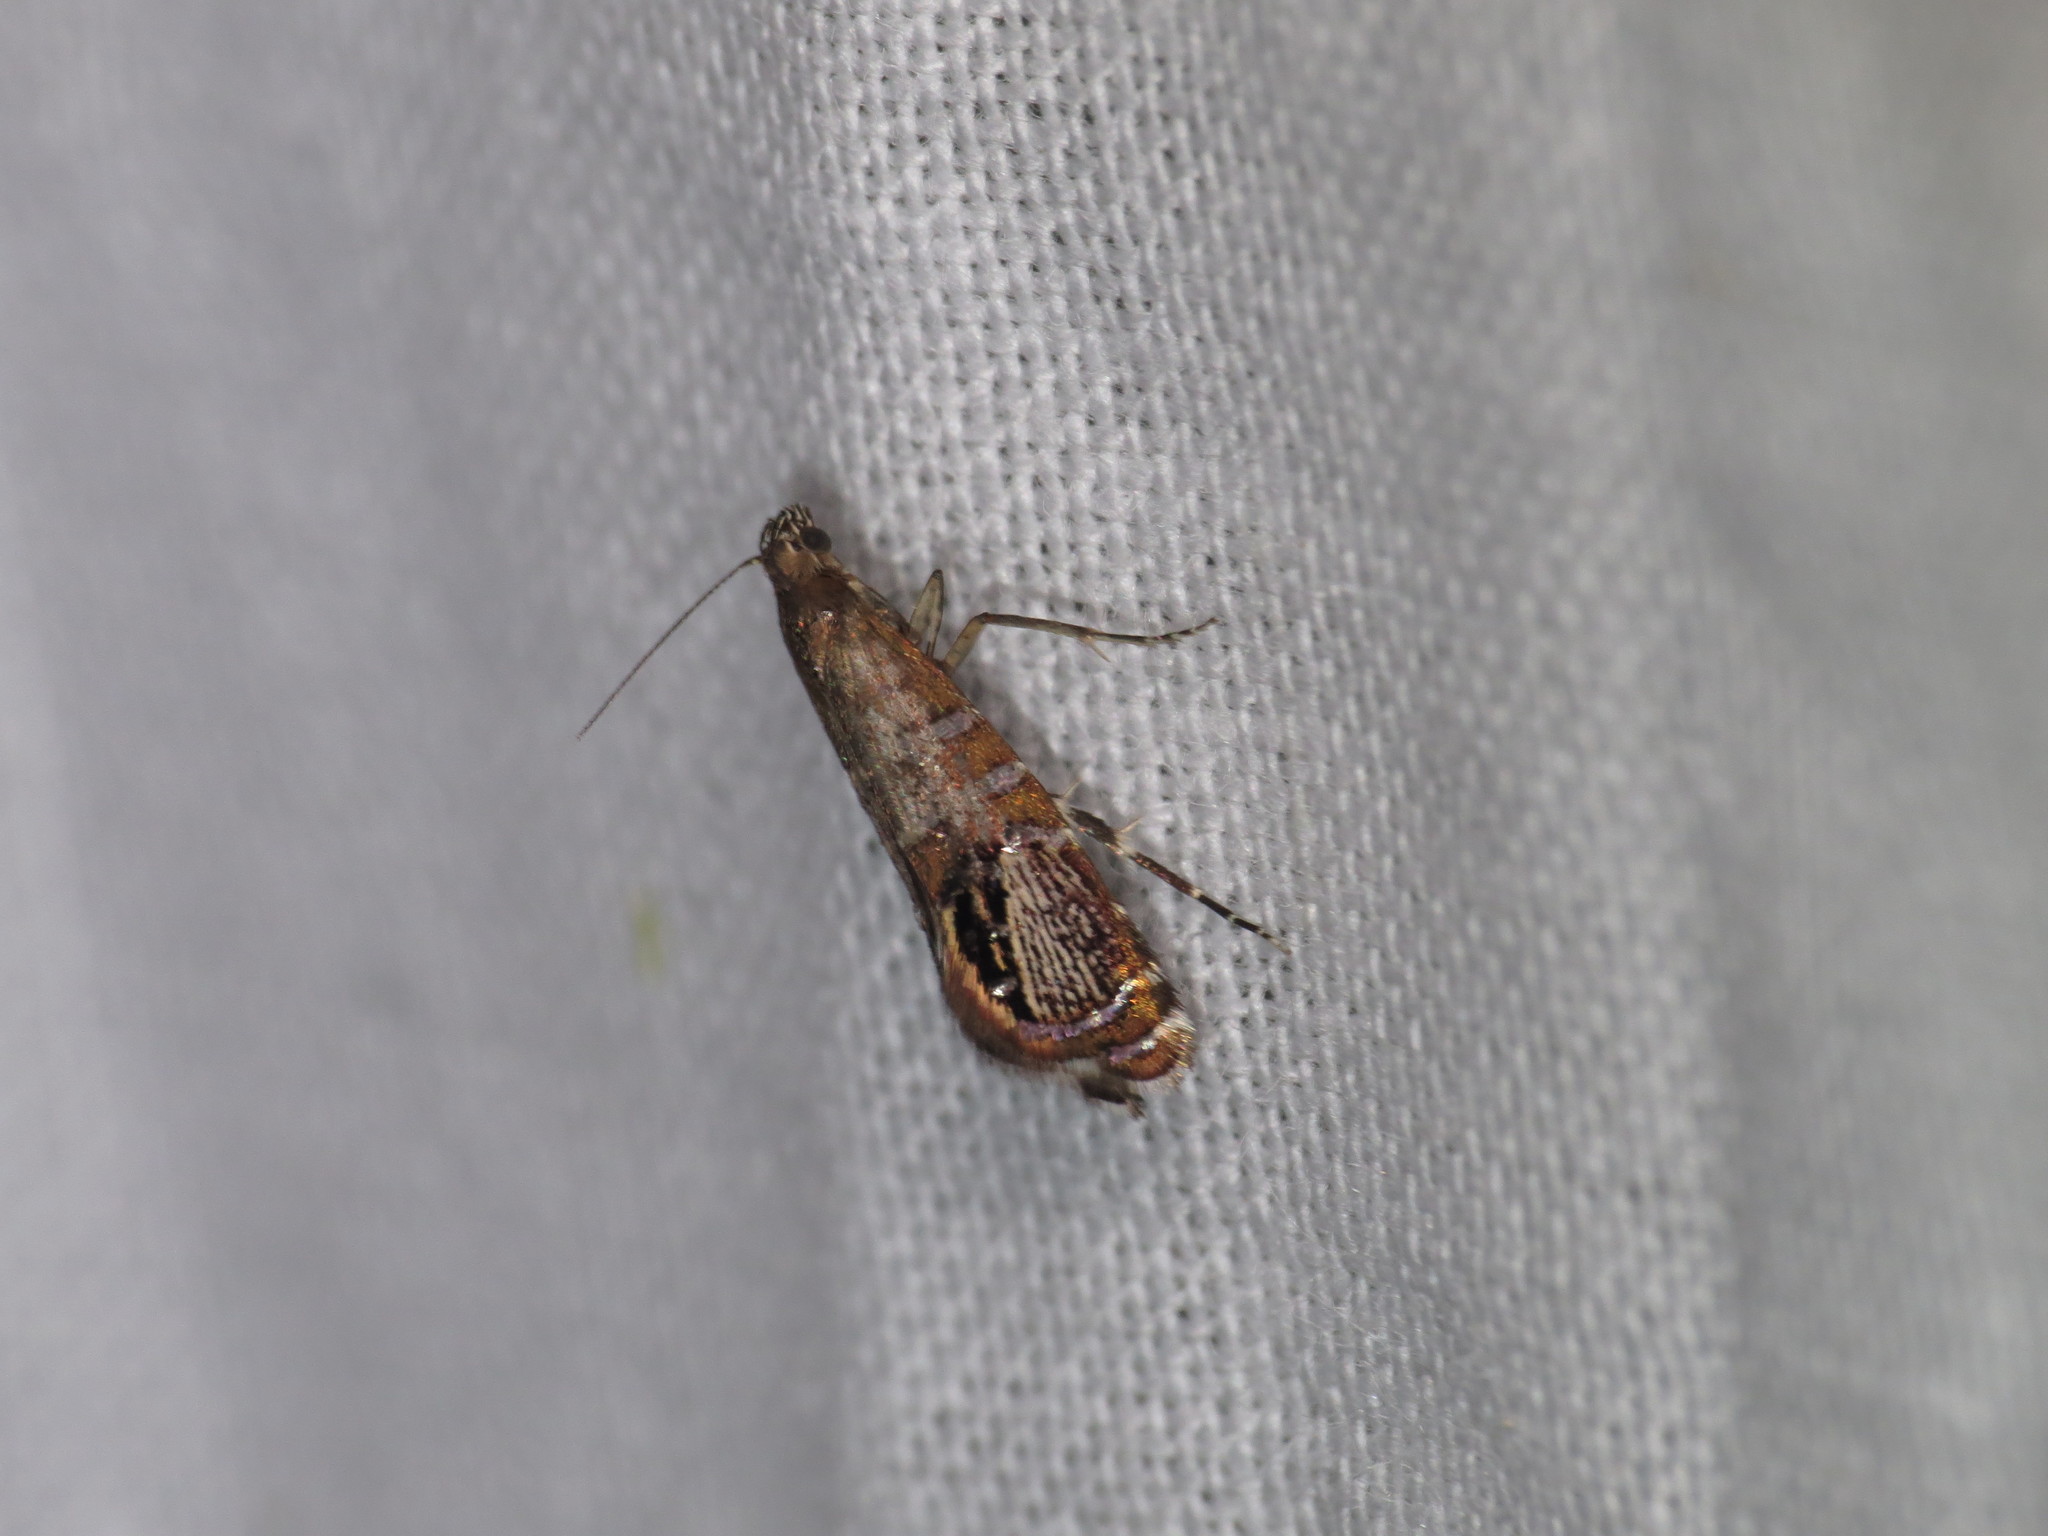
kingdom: Animalia
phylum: Arthropoda
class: Insecta
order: Lepidoptera
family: Glyphipterigidae
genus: Glyphipterix
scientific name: Glyphipterix cometophora
